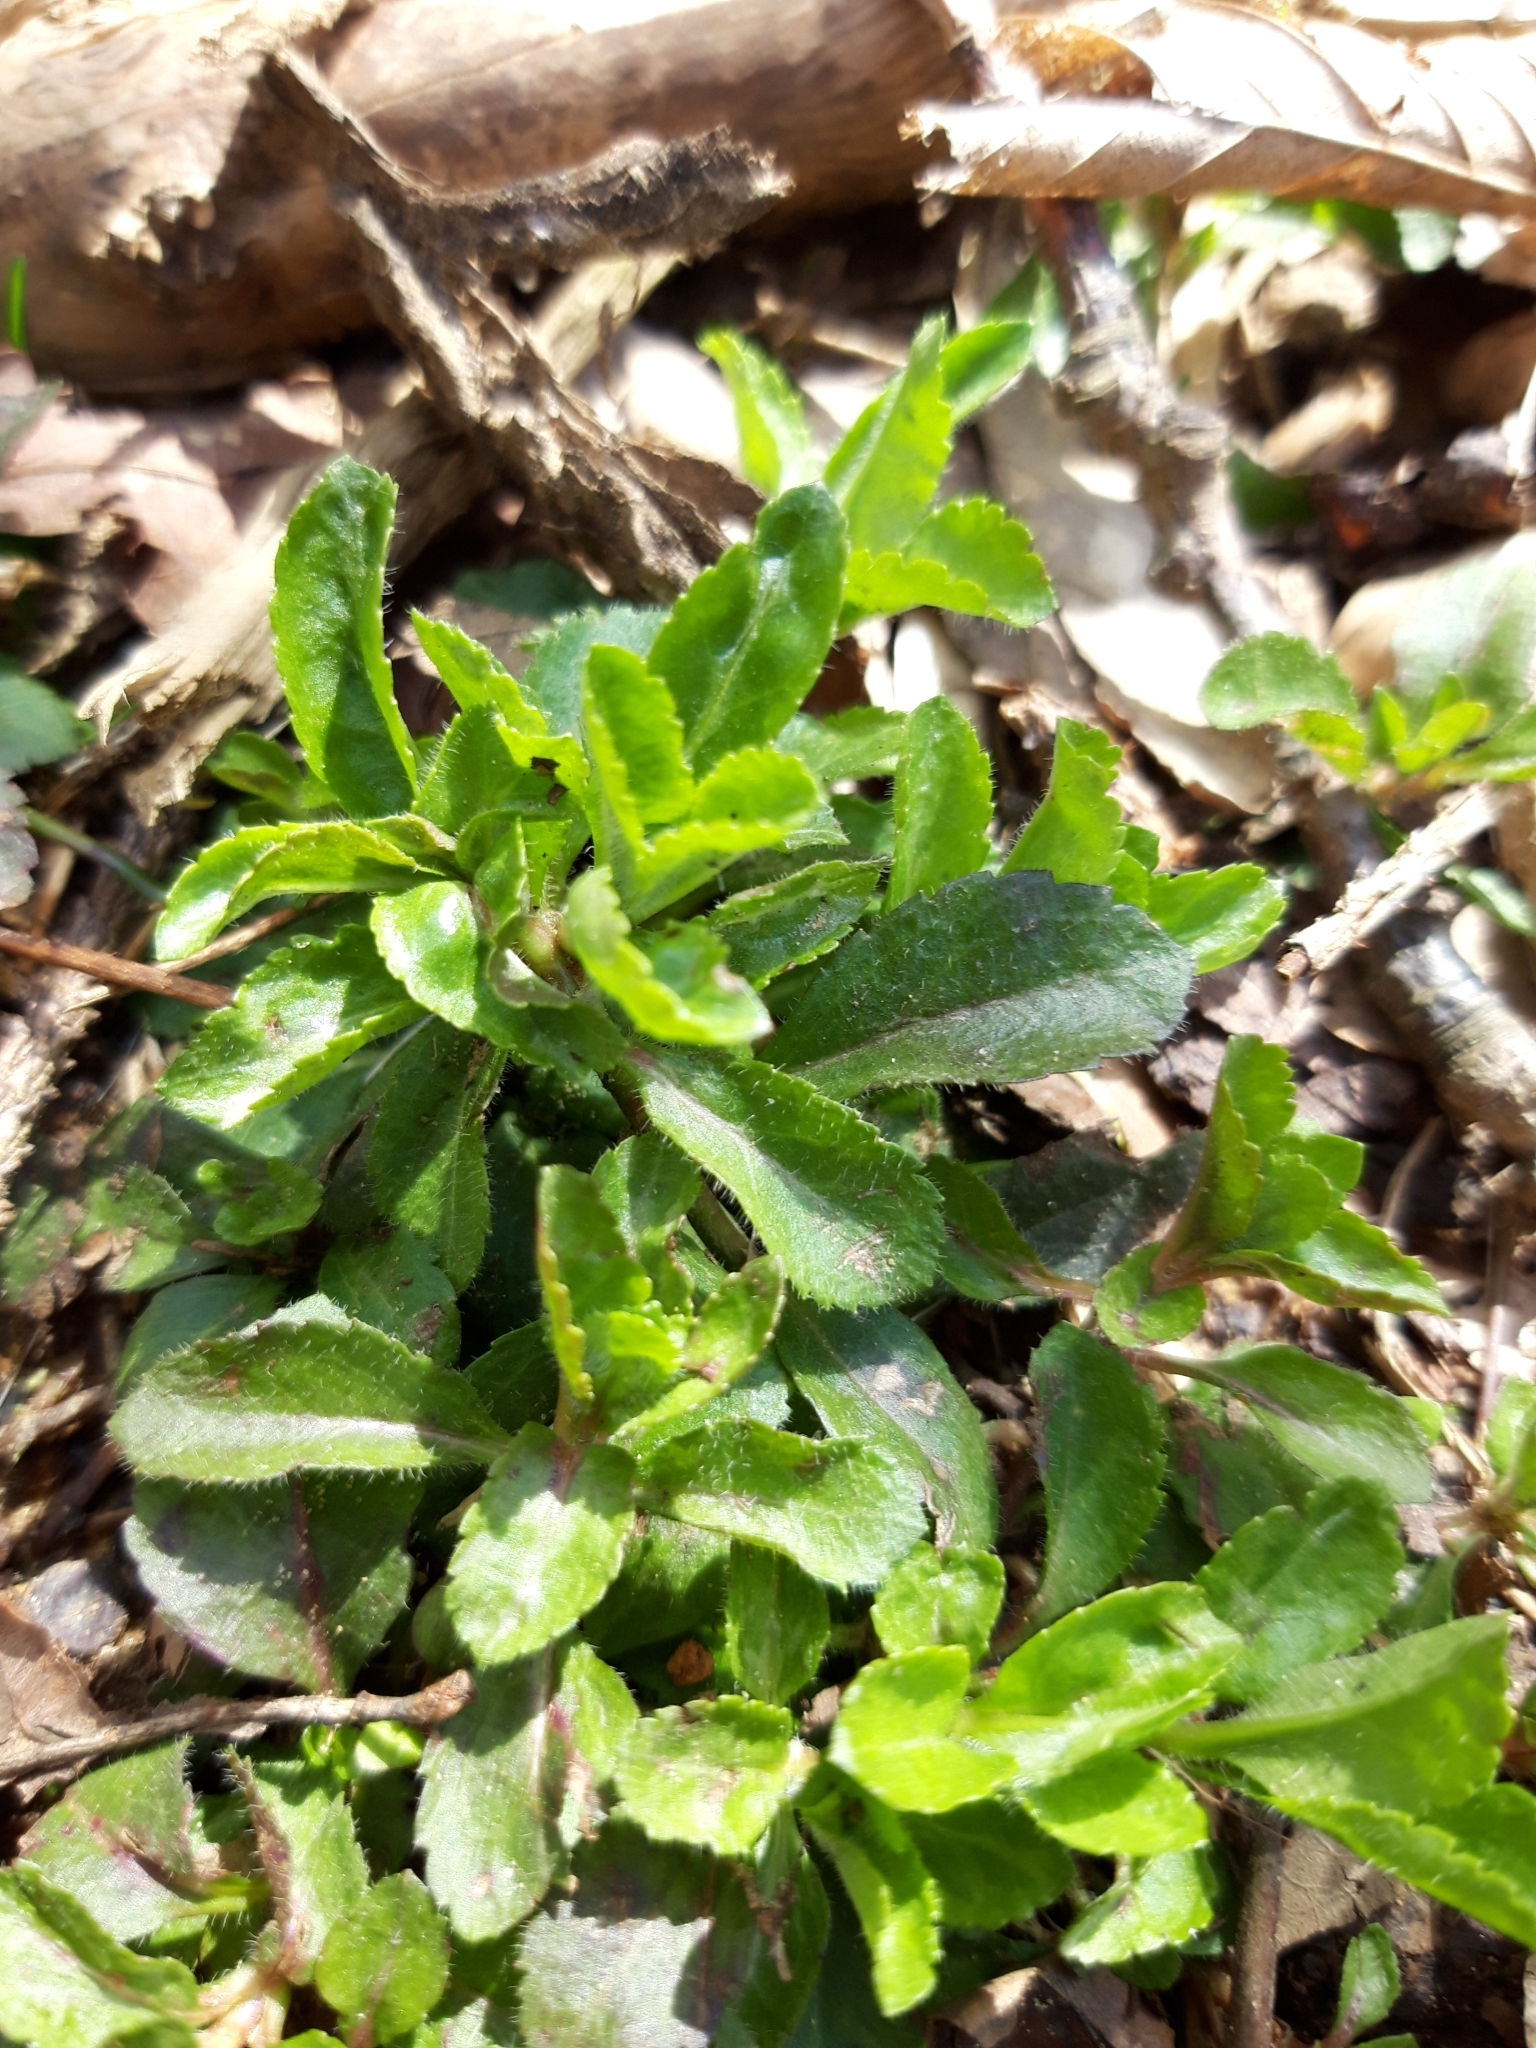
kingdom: Plantae
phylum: Tracheophyta
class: Magnoliopsida
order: Lamiales
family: Plantaginaceae
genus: Veronica
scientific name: Veronica officinalis
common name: Common speedwell
